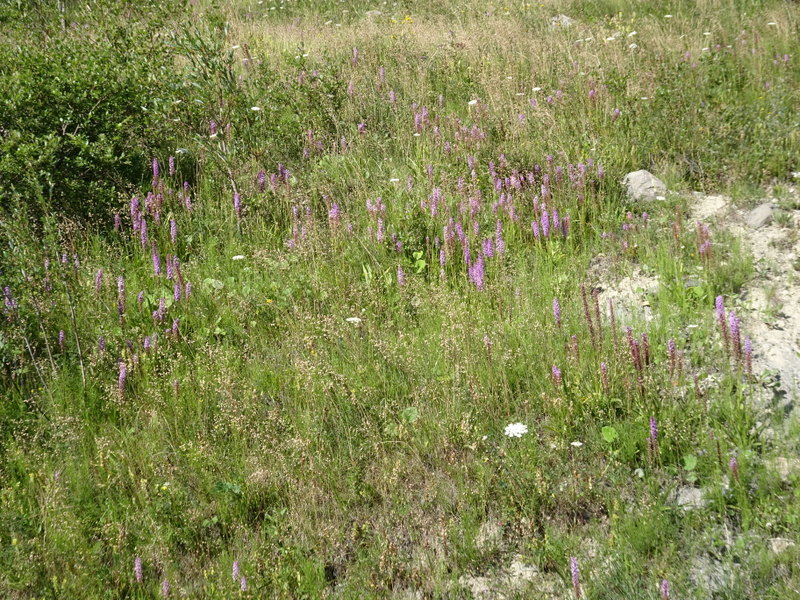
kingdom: Plantae
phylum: Tracheophyta
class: Liliopsida
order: Asparagales
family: Orchidaceae
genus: Gymnadenia
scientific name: Gymnadenia conopsea
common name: Fragrant orchid
